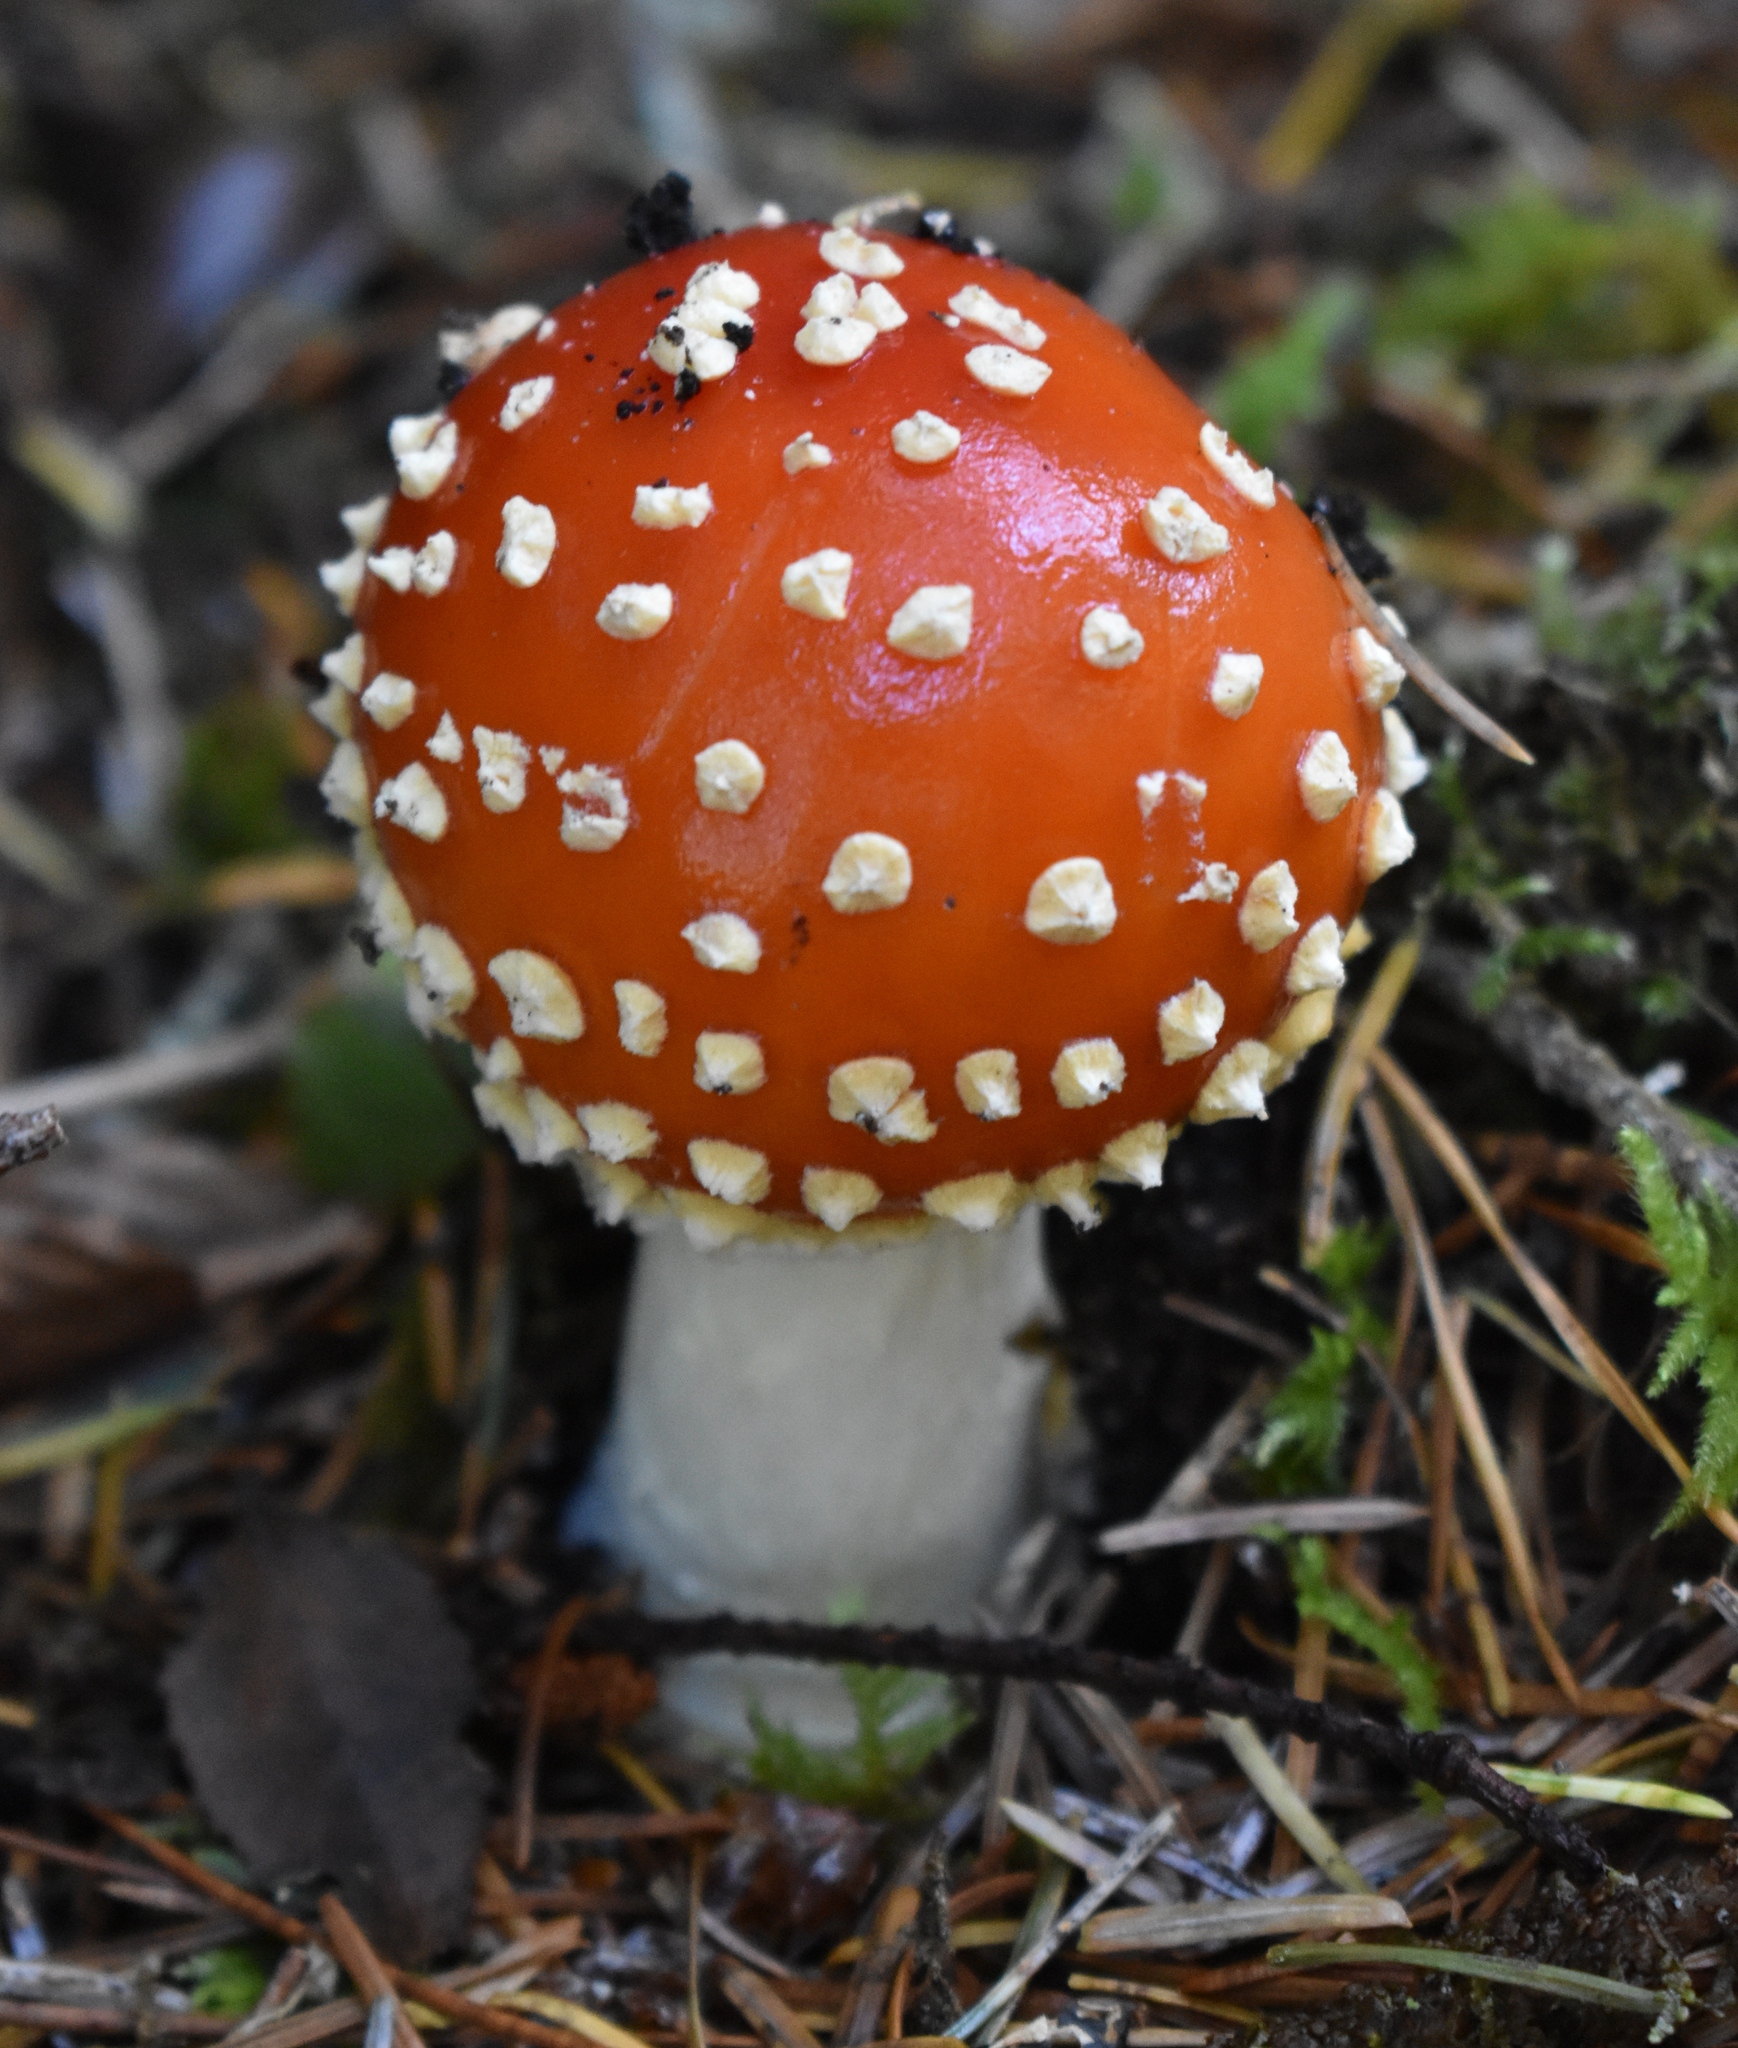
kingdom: Fungi
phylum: Basidiomycota
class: Agaricomycetes
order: Agaricales
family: Amanitaceae
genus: Amanita
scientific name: Amanita muscaria
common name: Fly agaric
